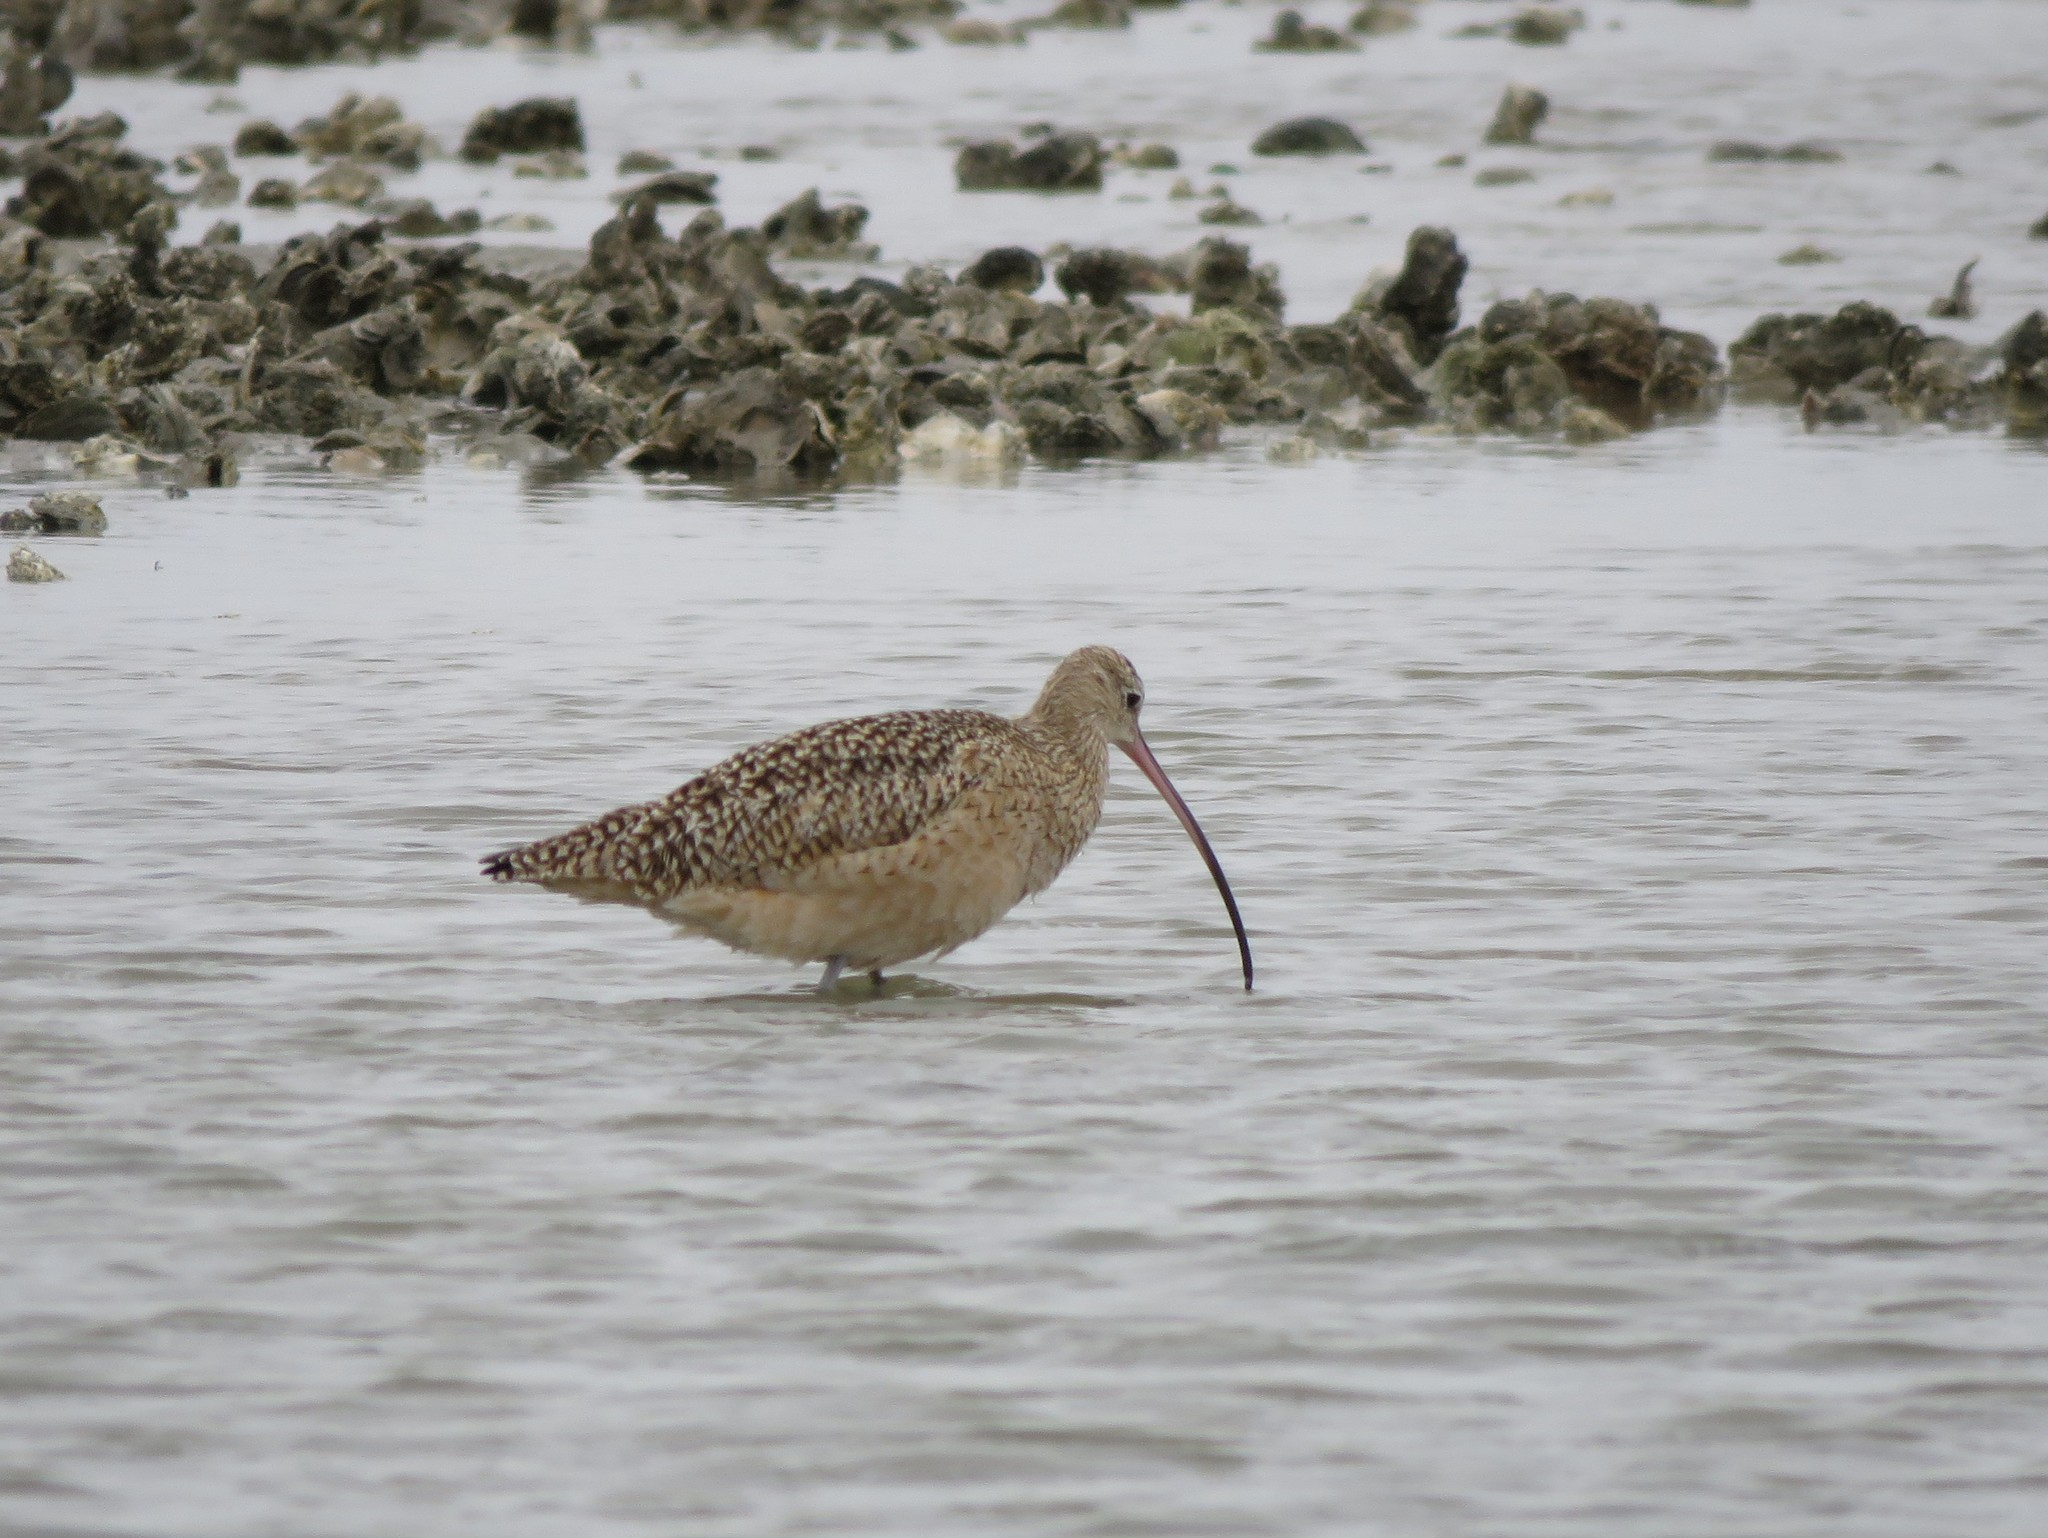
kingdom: Animalia
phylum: Chordata
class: Aves
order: Charadriiformes
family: Scolopacidae
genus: Numenius
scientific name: Numenius americanus
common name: Long-billed curlew
